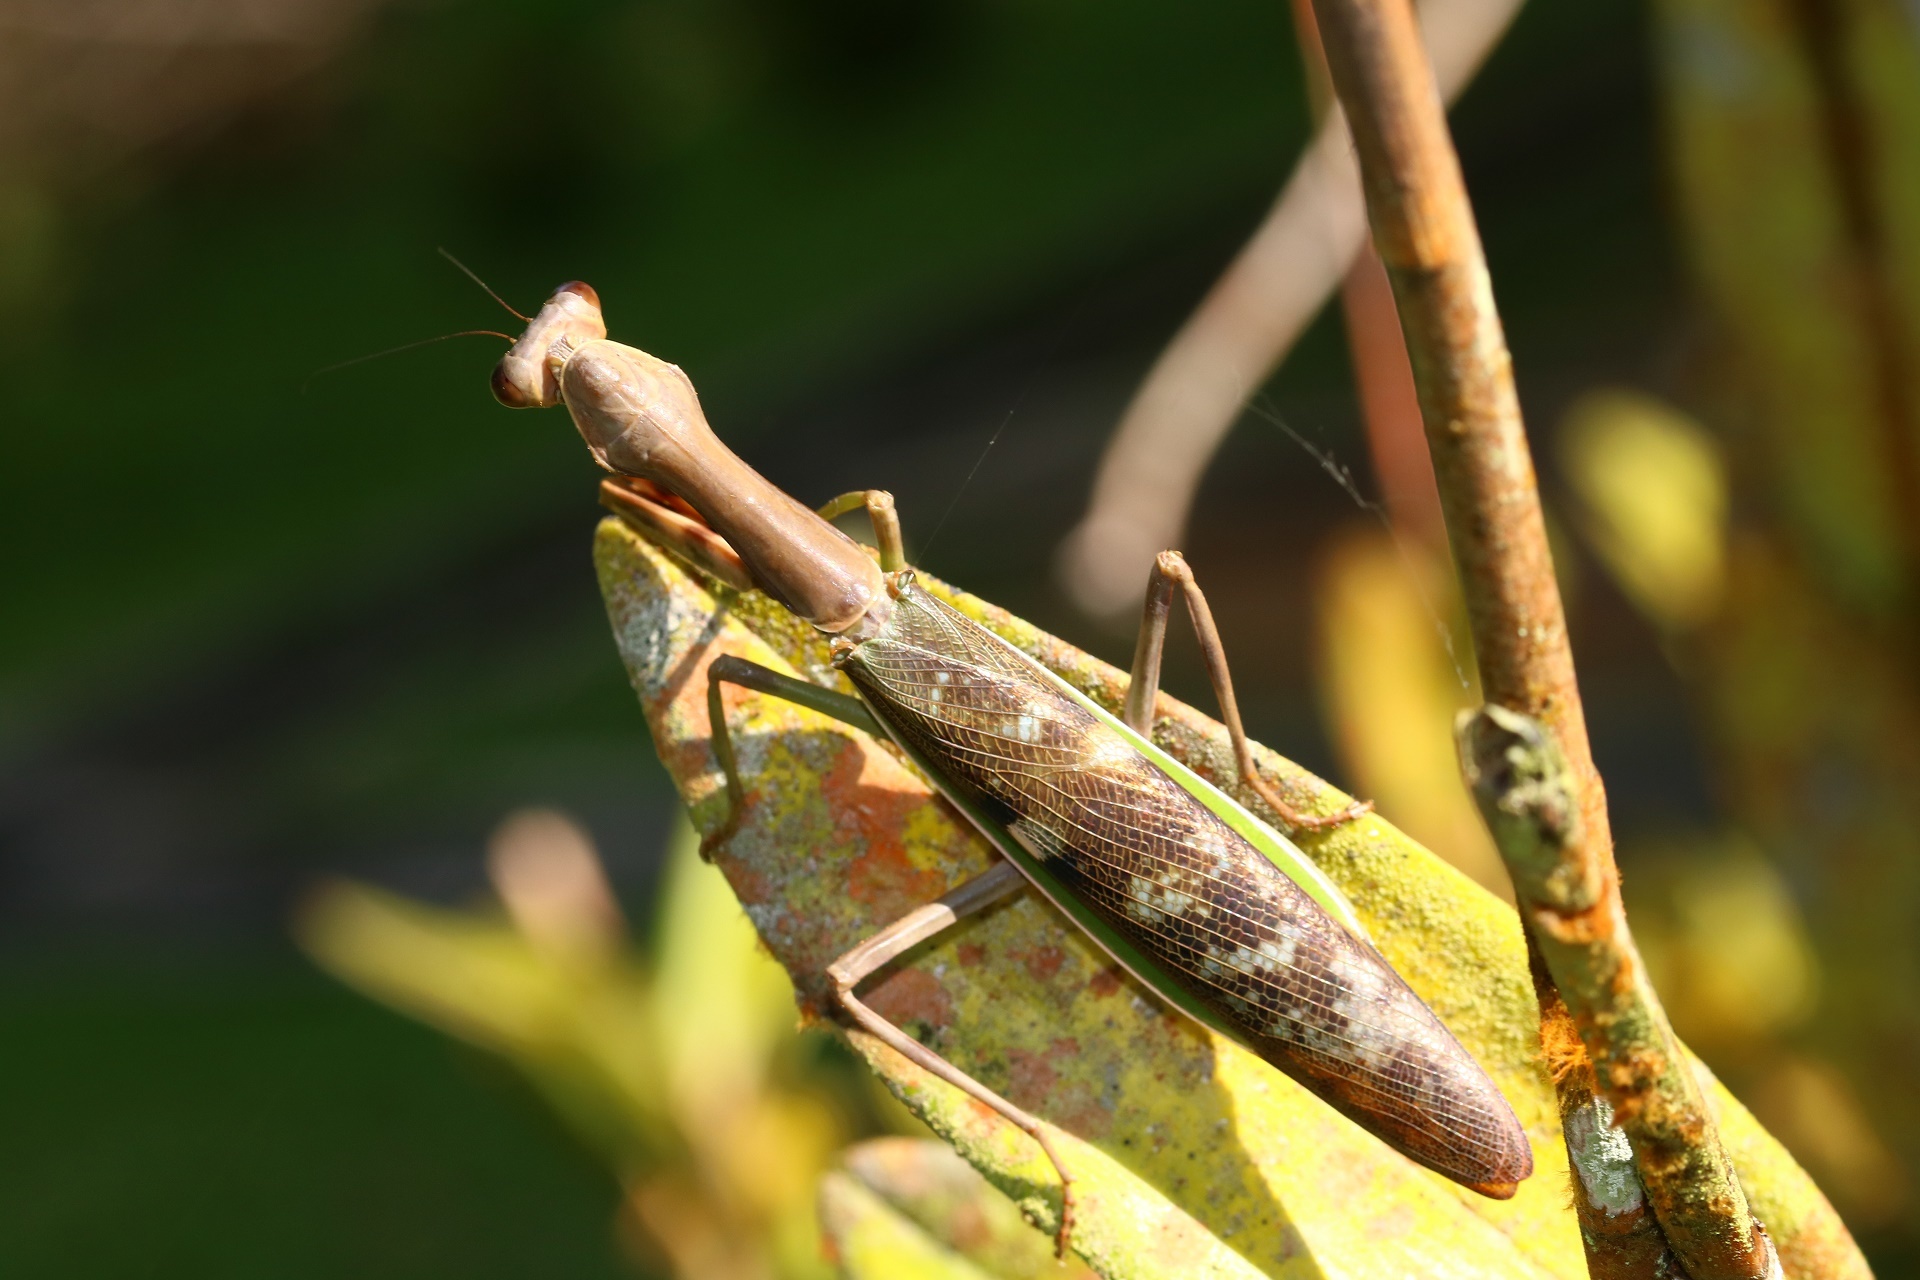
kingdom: Animalia
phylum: Arthropoda
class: Insecta
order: Mantodea
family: Mantidae
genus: Ephierodula
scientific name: Ephierodula heteroptera
